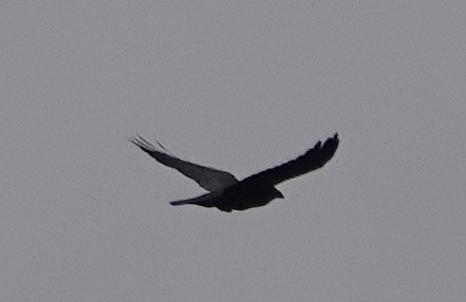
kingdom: Animalia
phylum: Chordata
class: Aves
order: Passeriformes
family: Corvidae
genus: Corvus
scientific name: Corvus corax
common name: Common raven
